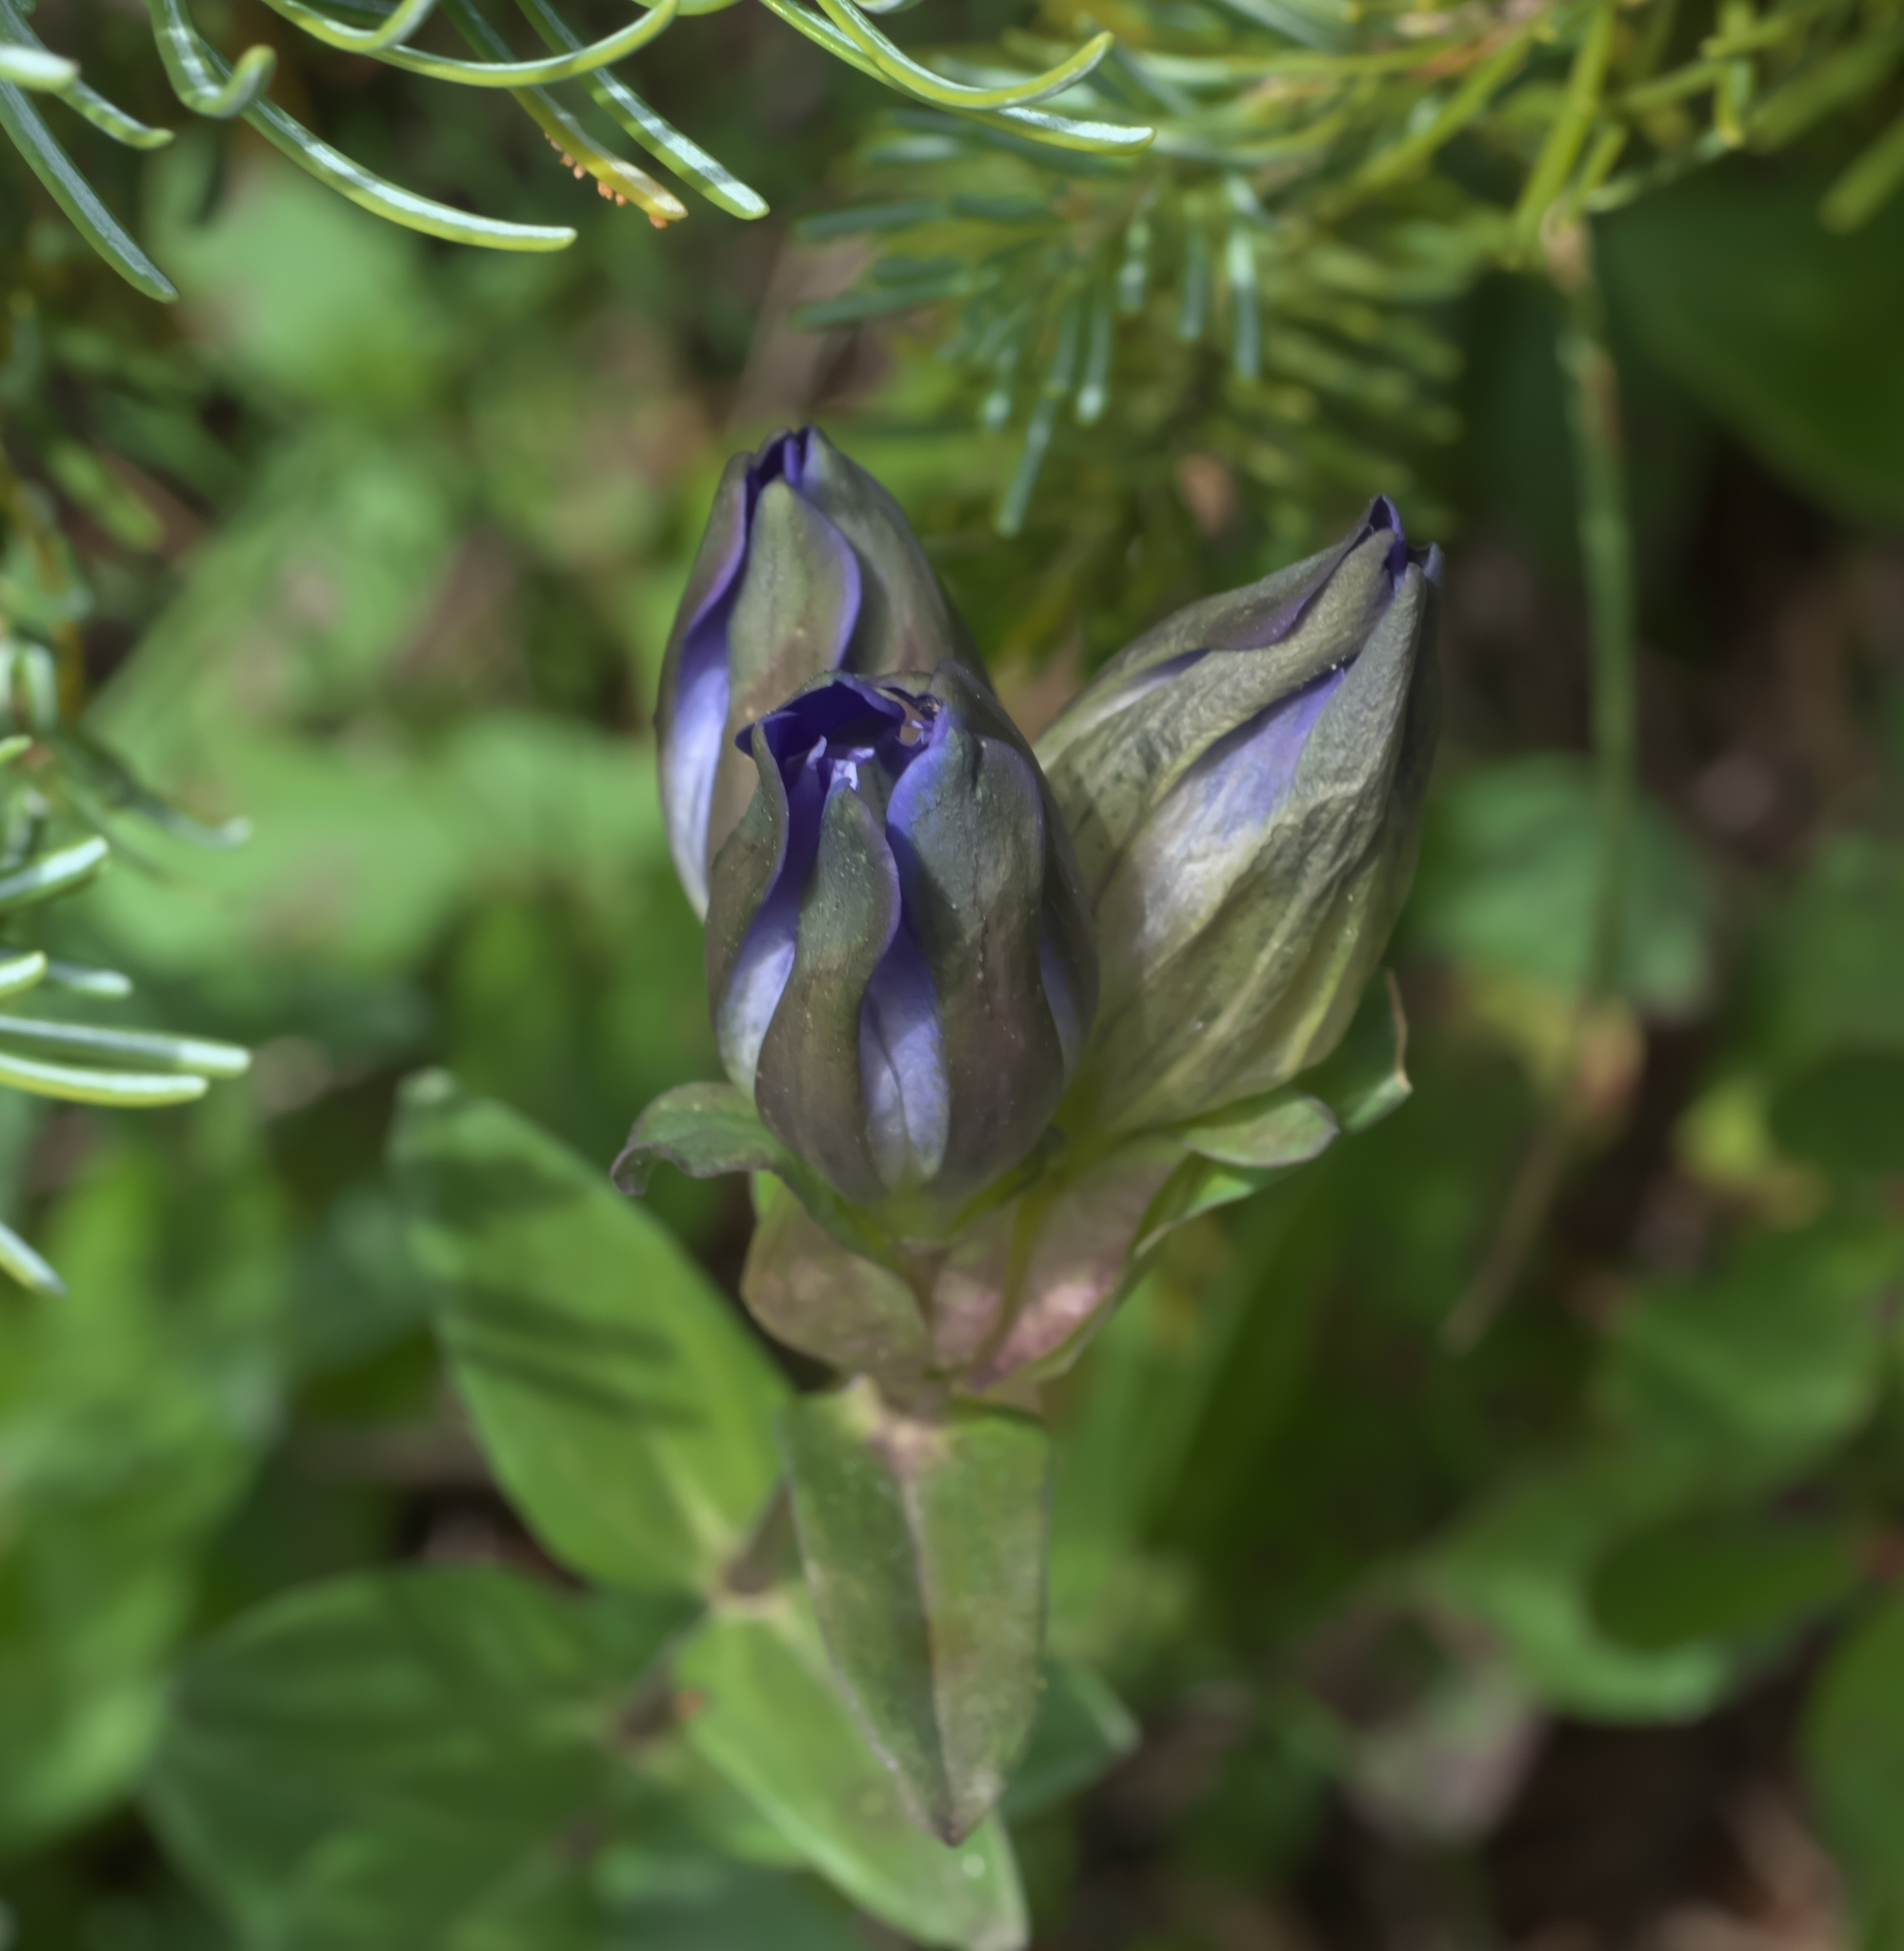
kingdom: Plantae
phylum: Tracheophyta
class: Magnoliopsida
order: Gentianales
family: Gentianaceae
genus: Gentiana
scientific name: Gentiana parryi
